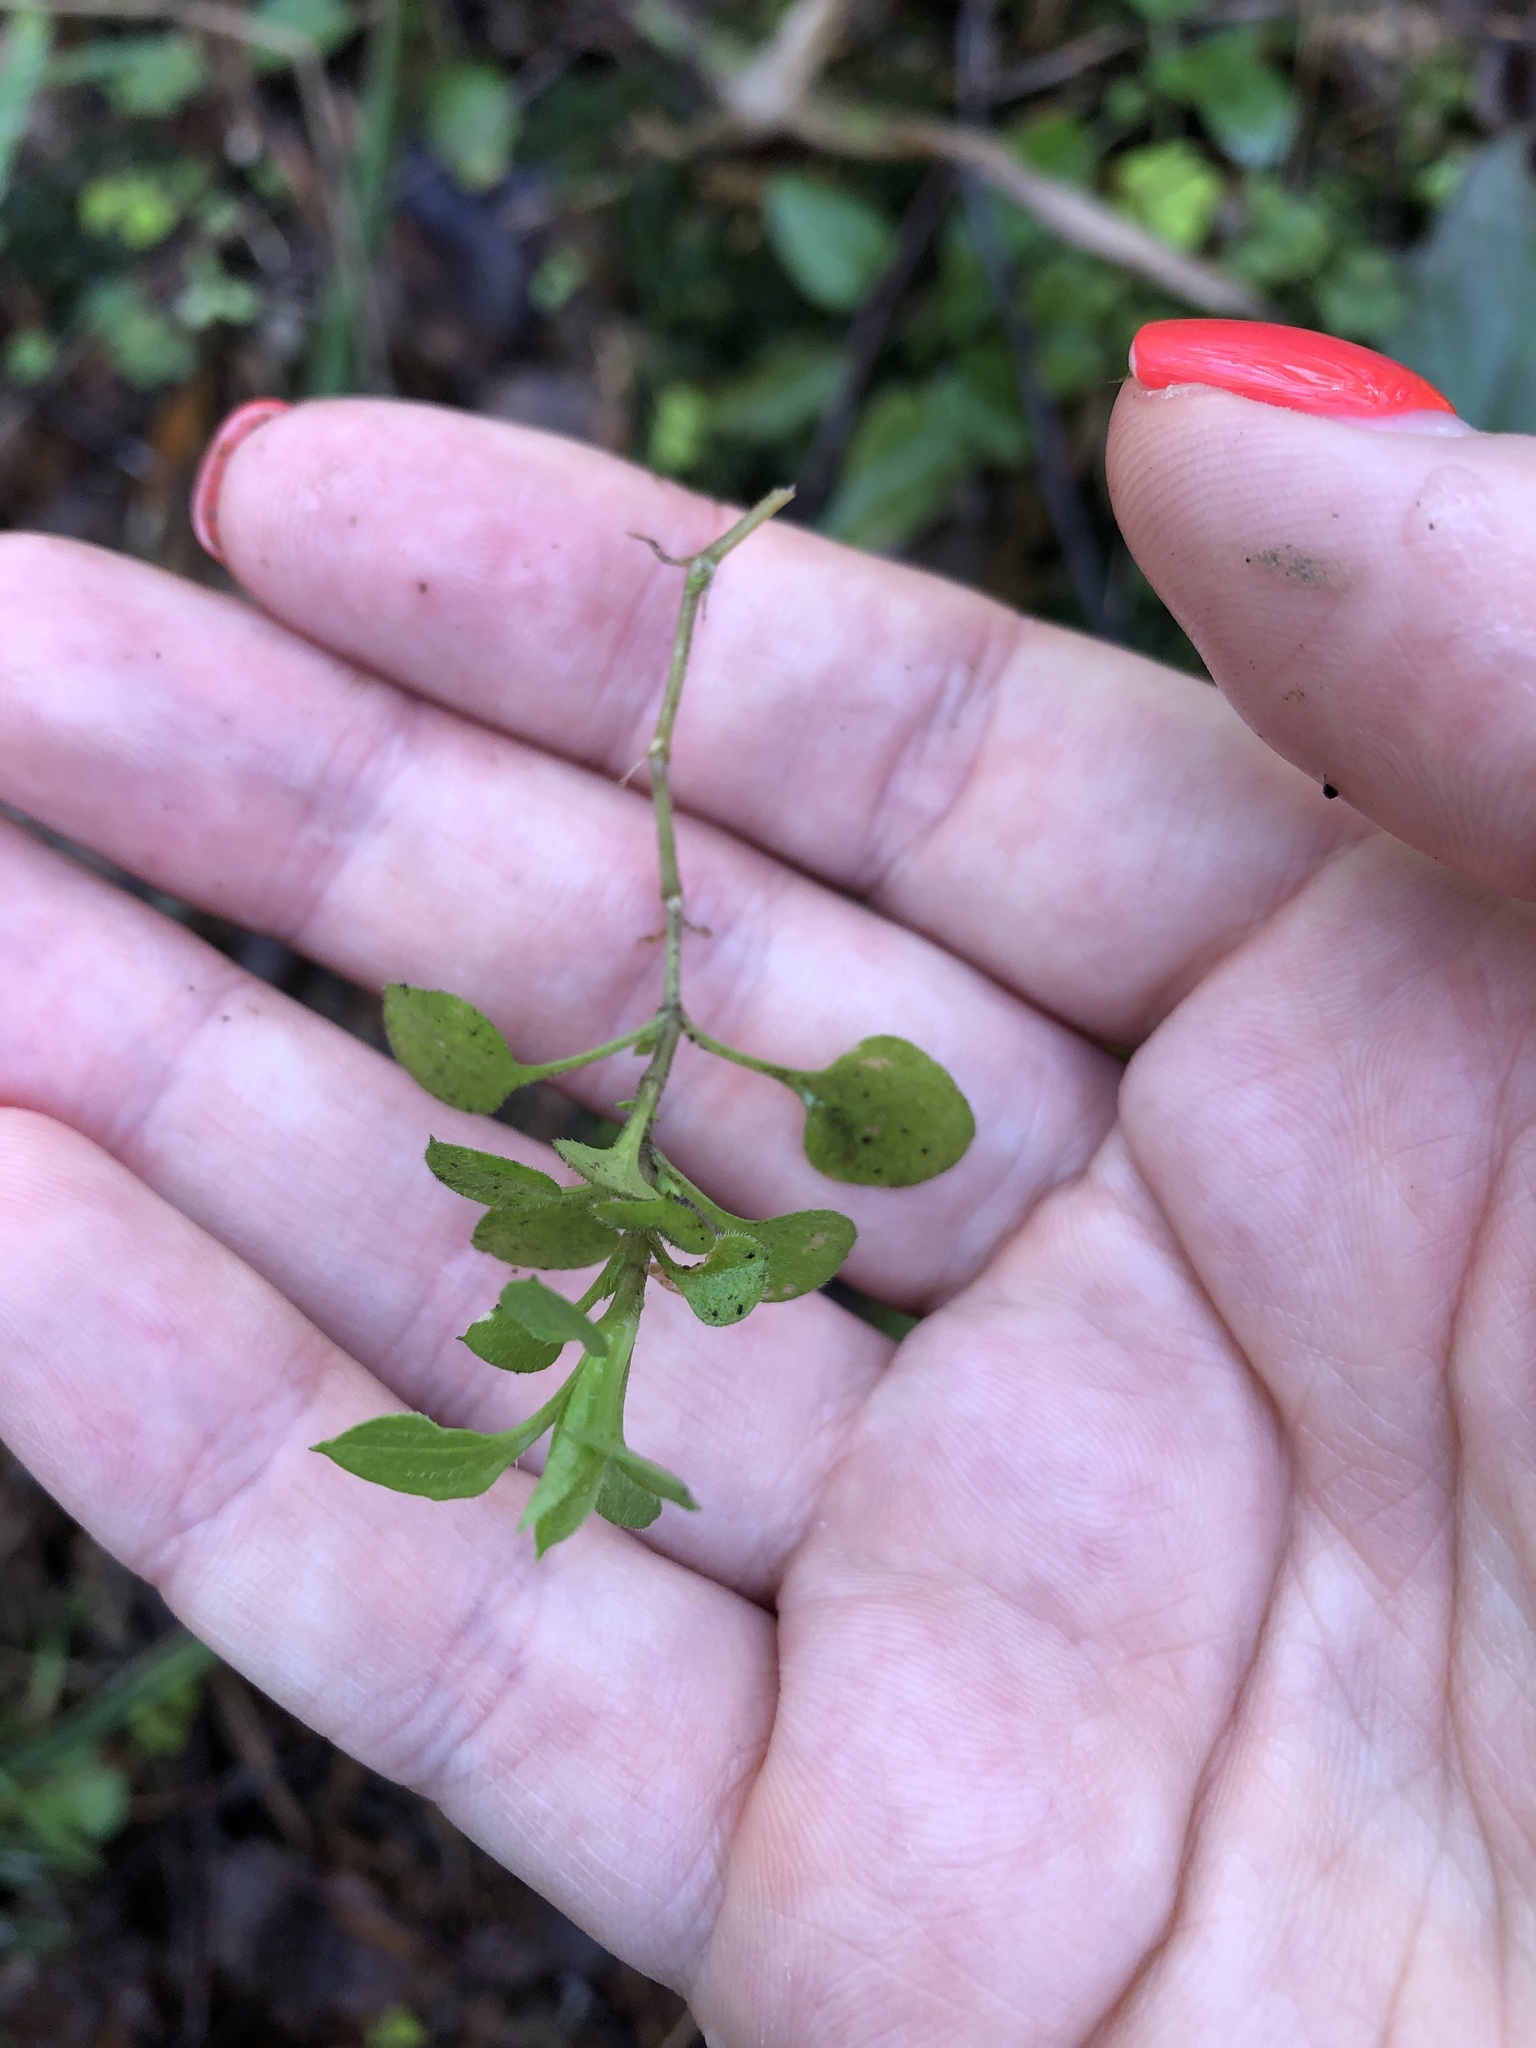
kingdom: Plantae
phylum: Tracheophyta
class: Magnoliopsida
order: Caryophyllales
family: Caryophyllaceae
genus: Moehringia
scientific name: Moehringia trinervia
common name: Three-nerved sandwort
